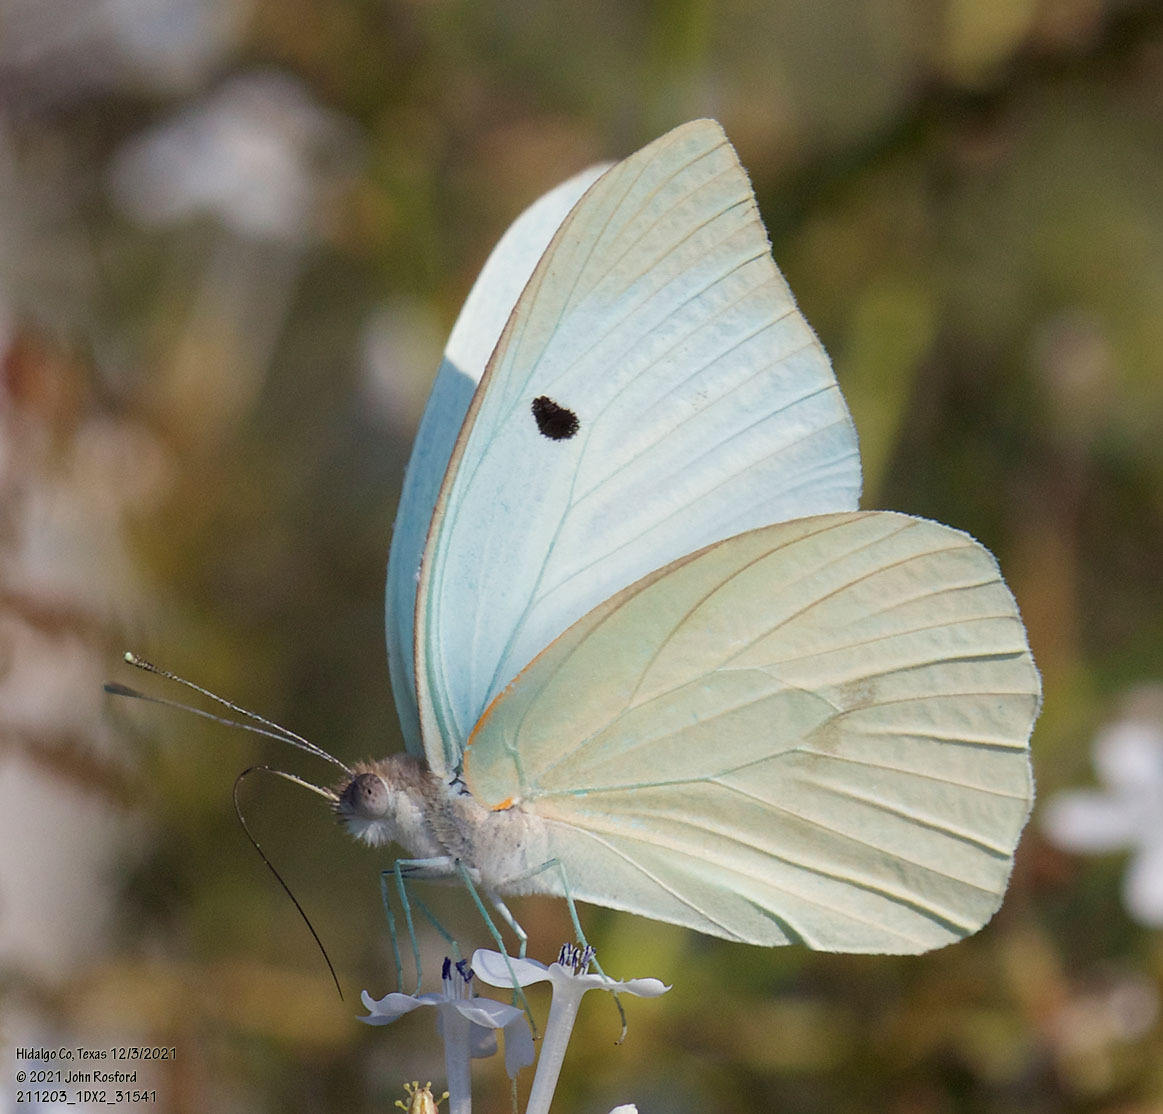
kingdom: Animalia
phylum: Arthropoda
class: Insecta
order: Lepidoptera
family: Pieridae
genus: Ganyra
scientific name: Ganyra josephina
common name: Giant white
